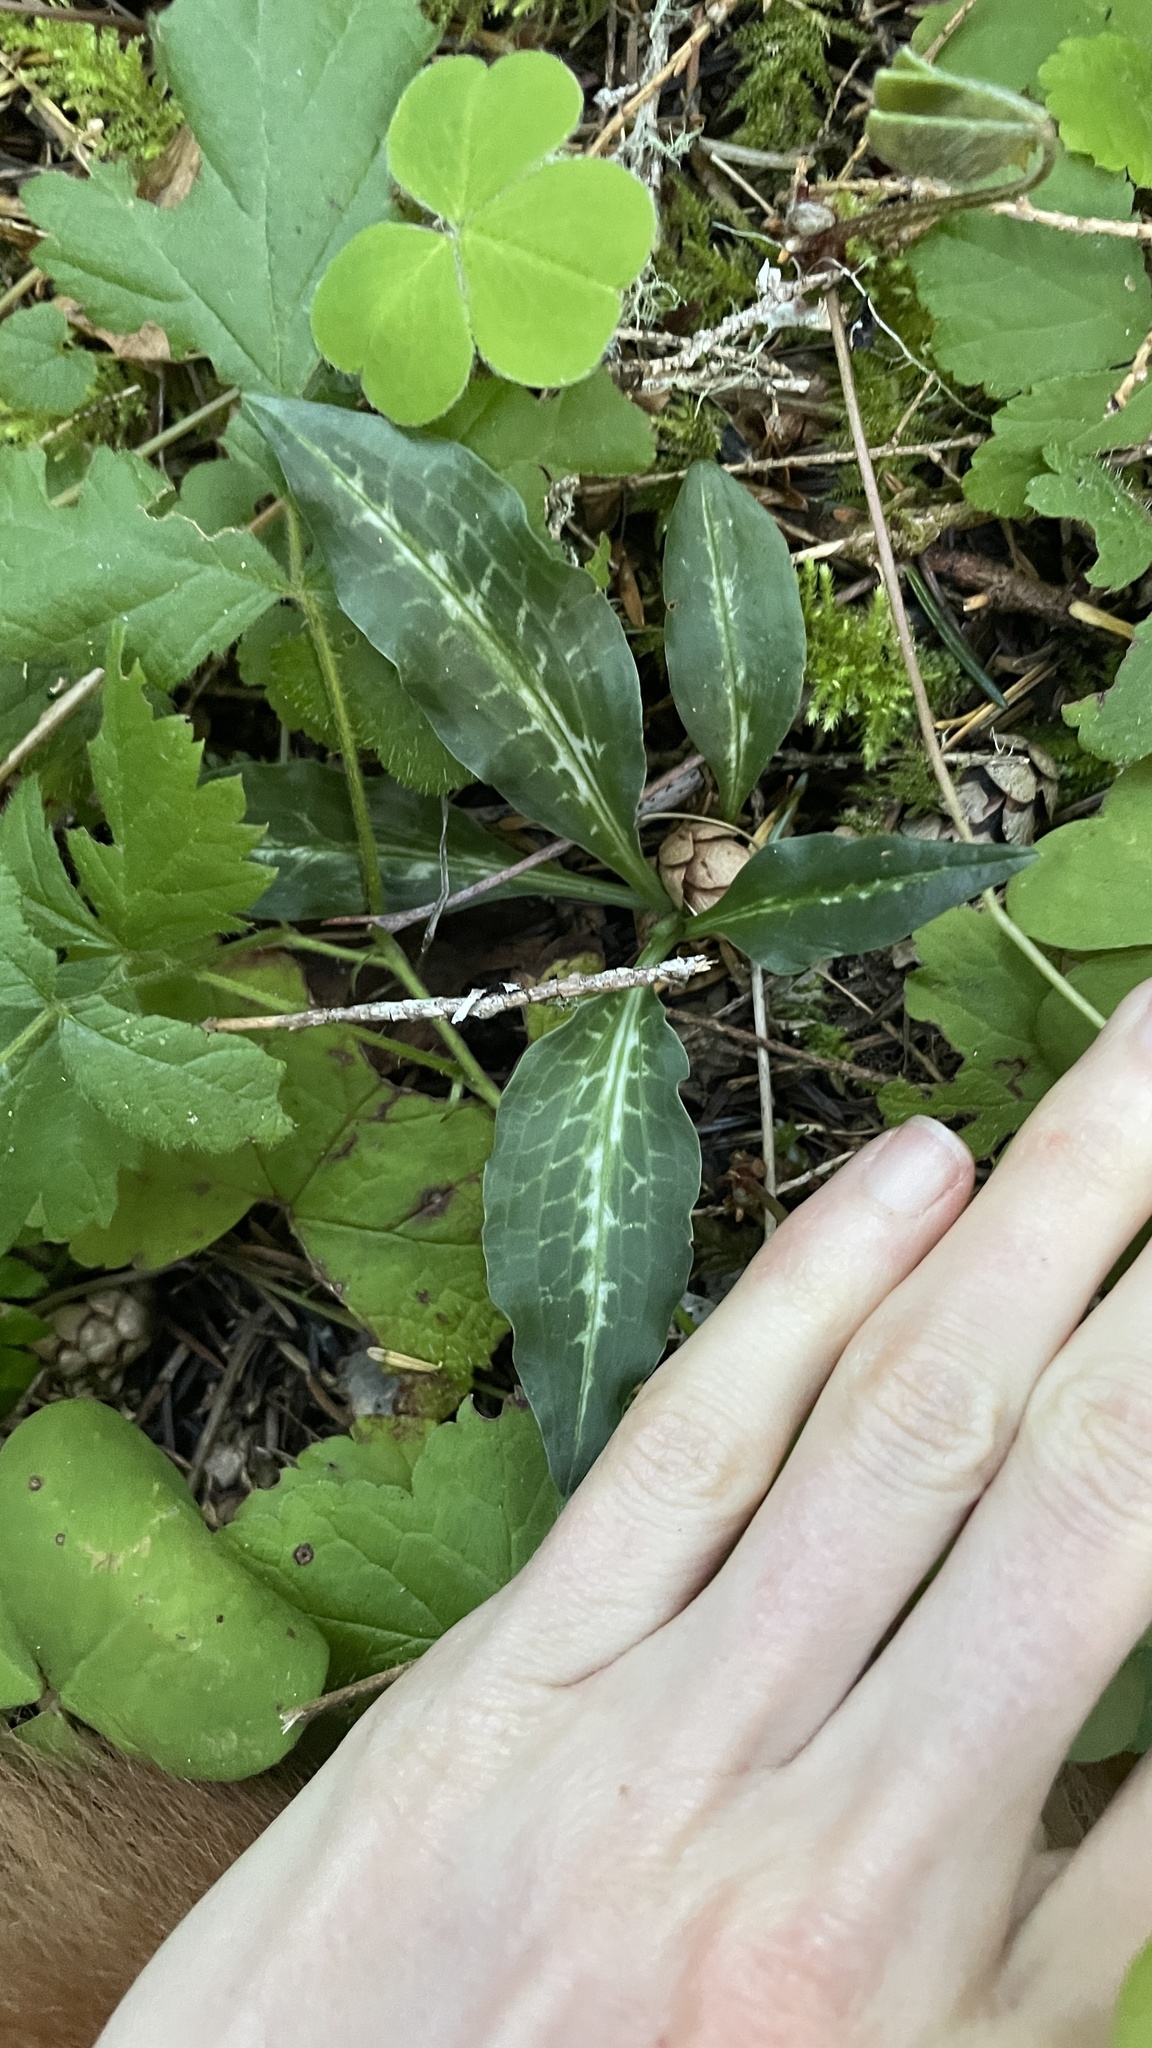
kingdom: Plantae
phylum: Tracheophyta
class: Liliopsida
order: Asparagales
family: Orchidaceae
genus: Goodyera
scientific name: Goodyera oblongifolia
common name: Giant rattlesnake-plantain
